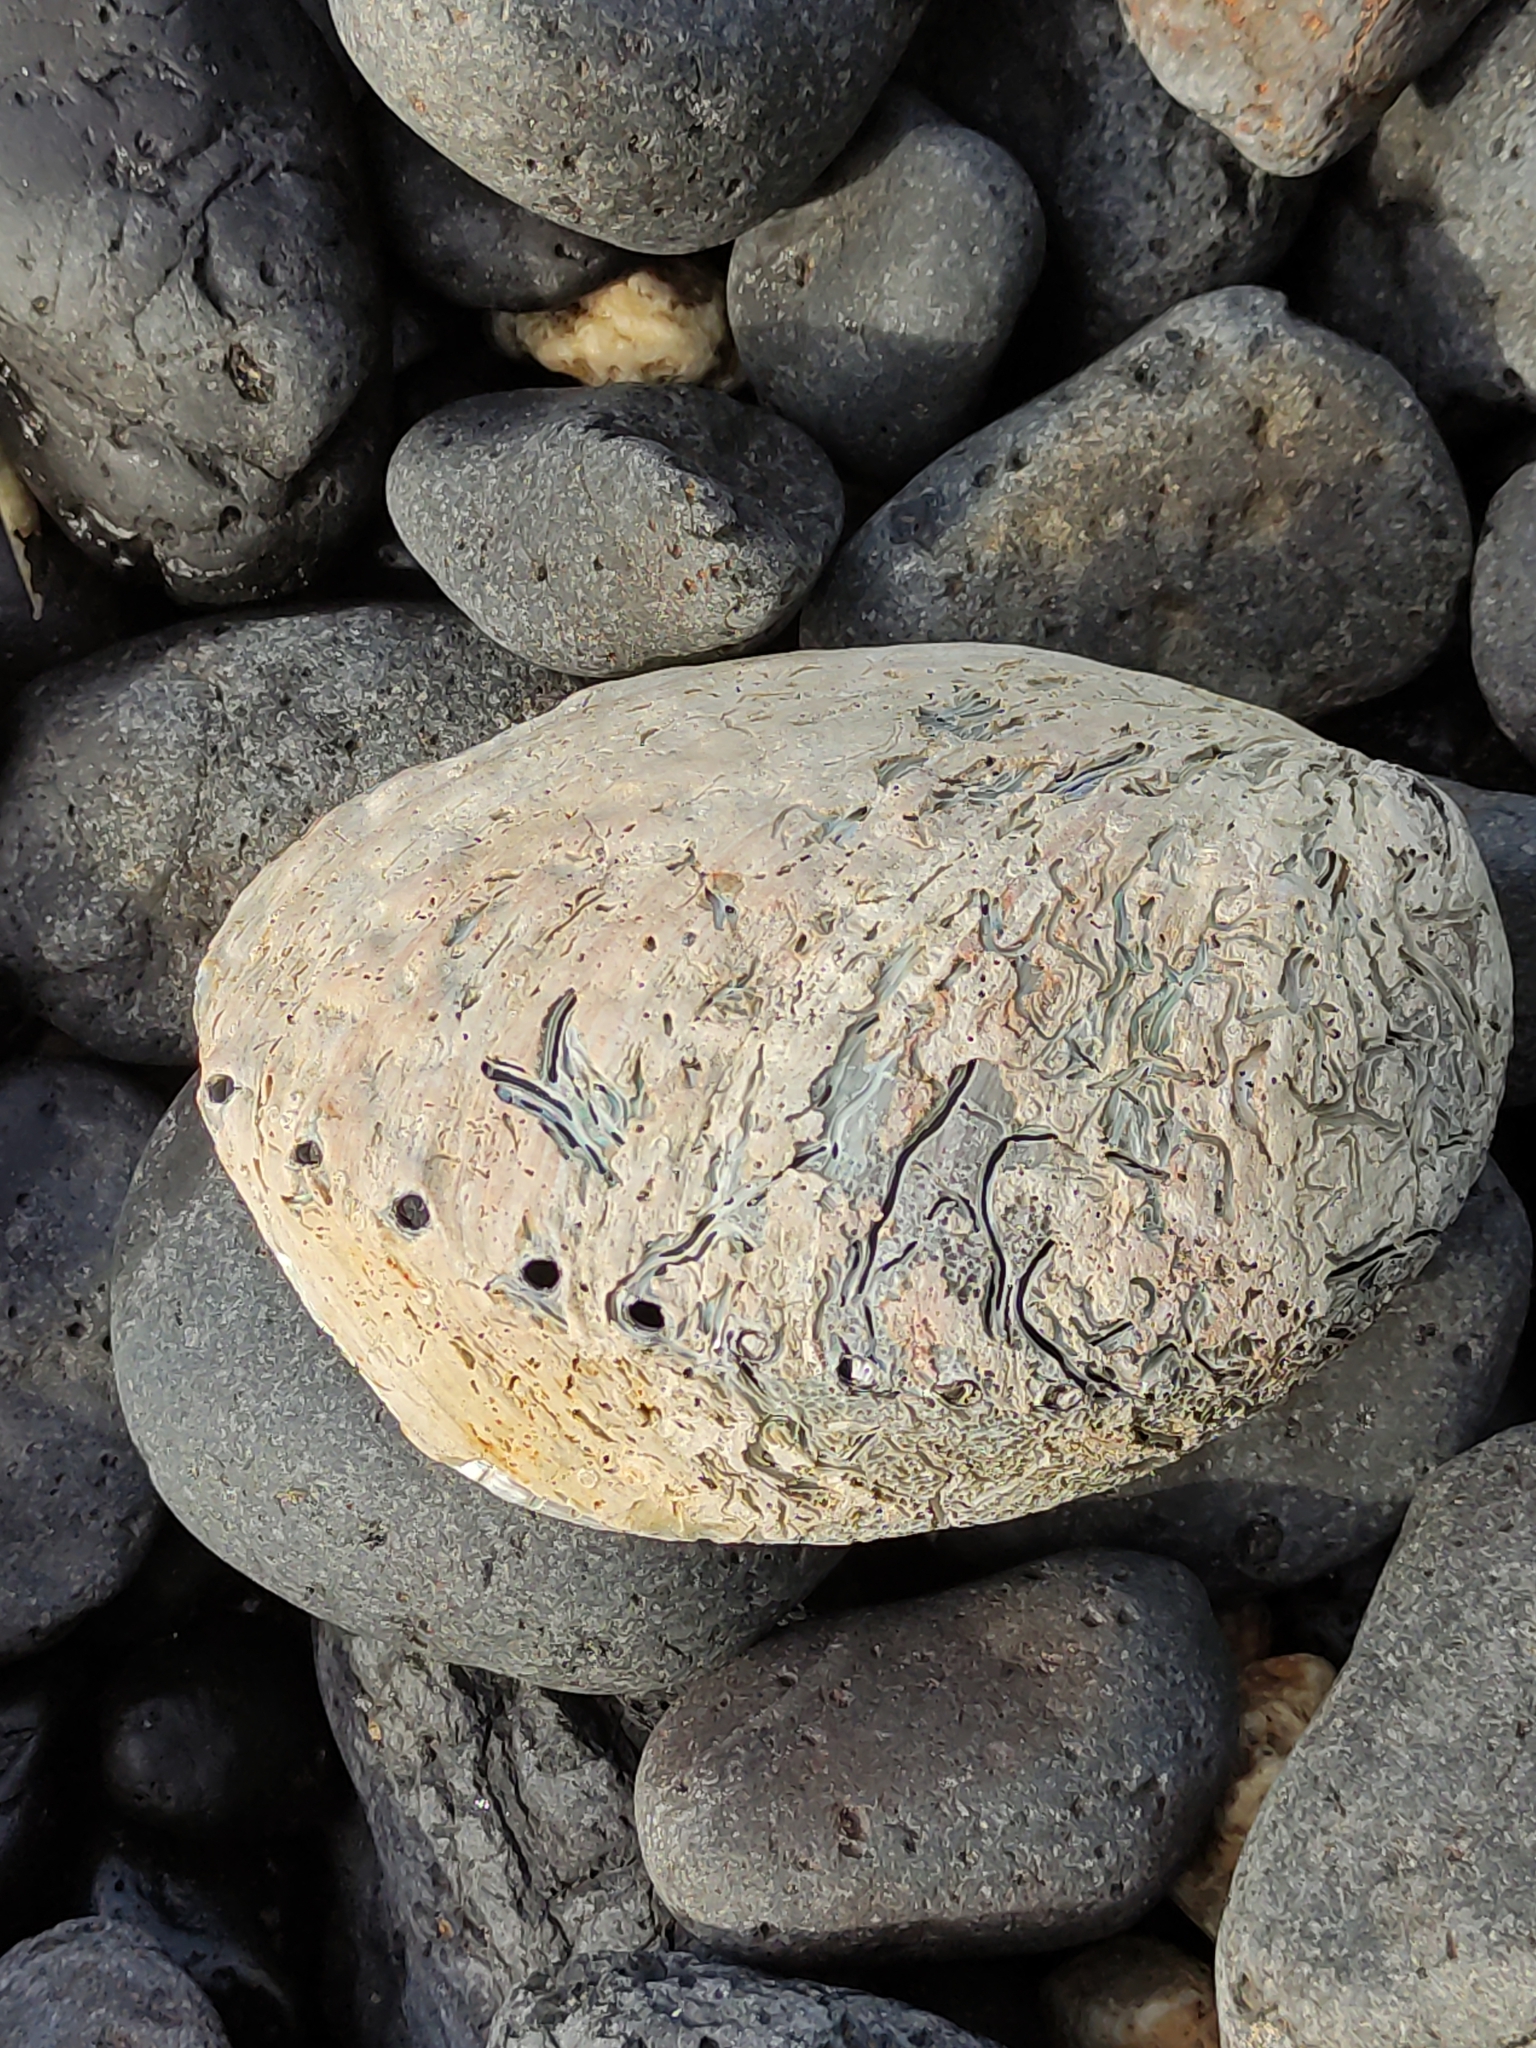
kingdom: Animalia
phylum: Mollusca
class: Gastropoda
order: Lepetellida
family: Haliotidae
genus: Haliotis
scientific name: Haliotis iris
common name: Abalone
